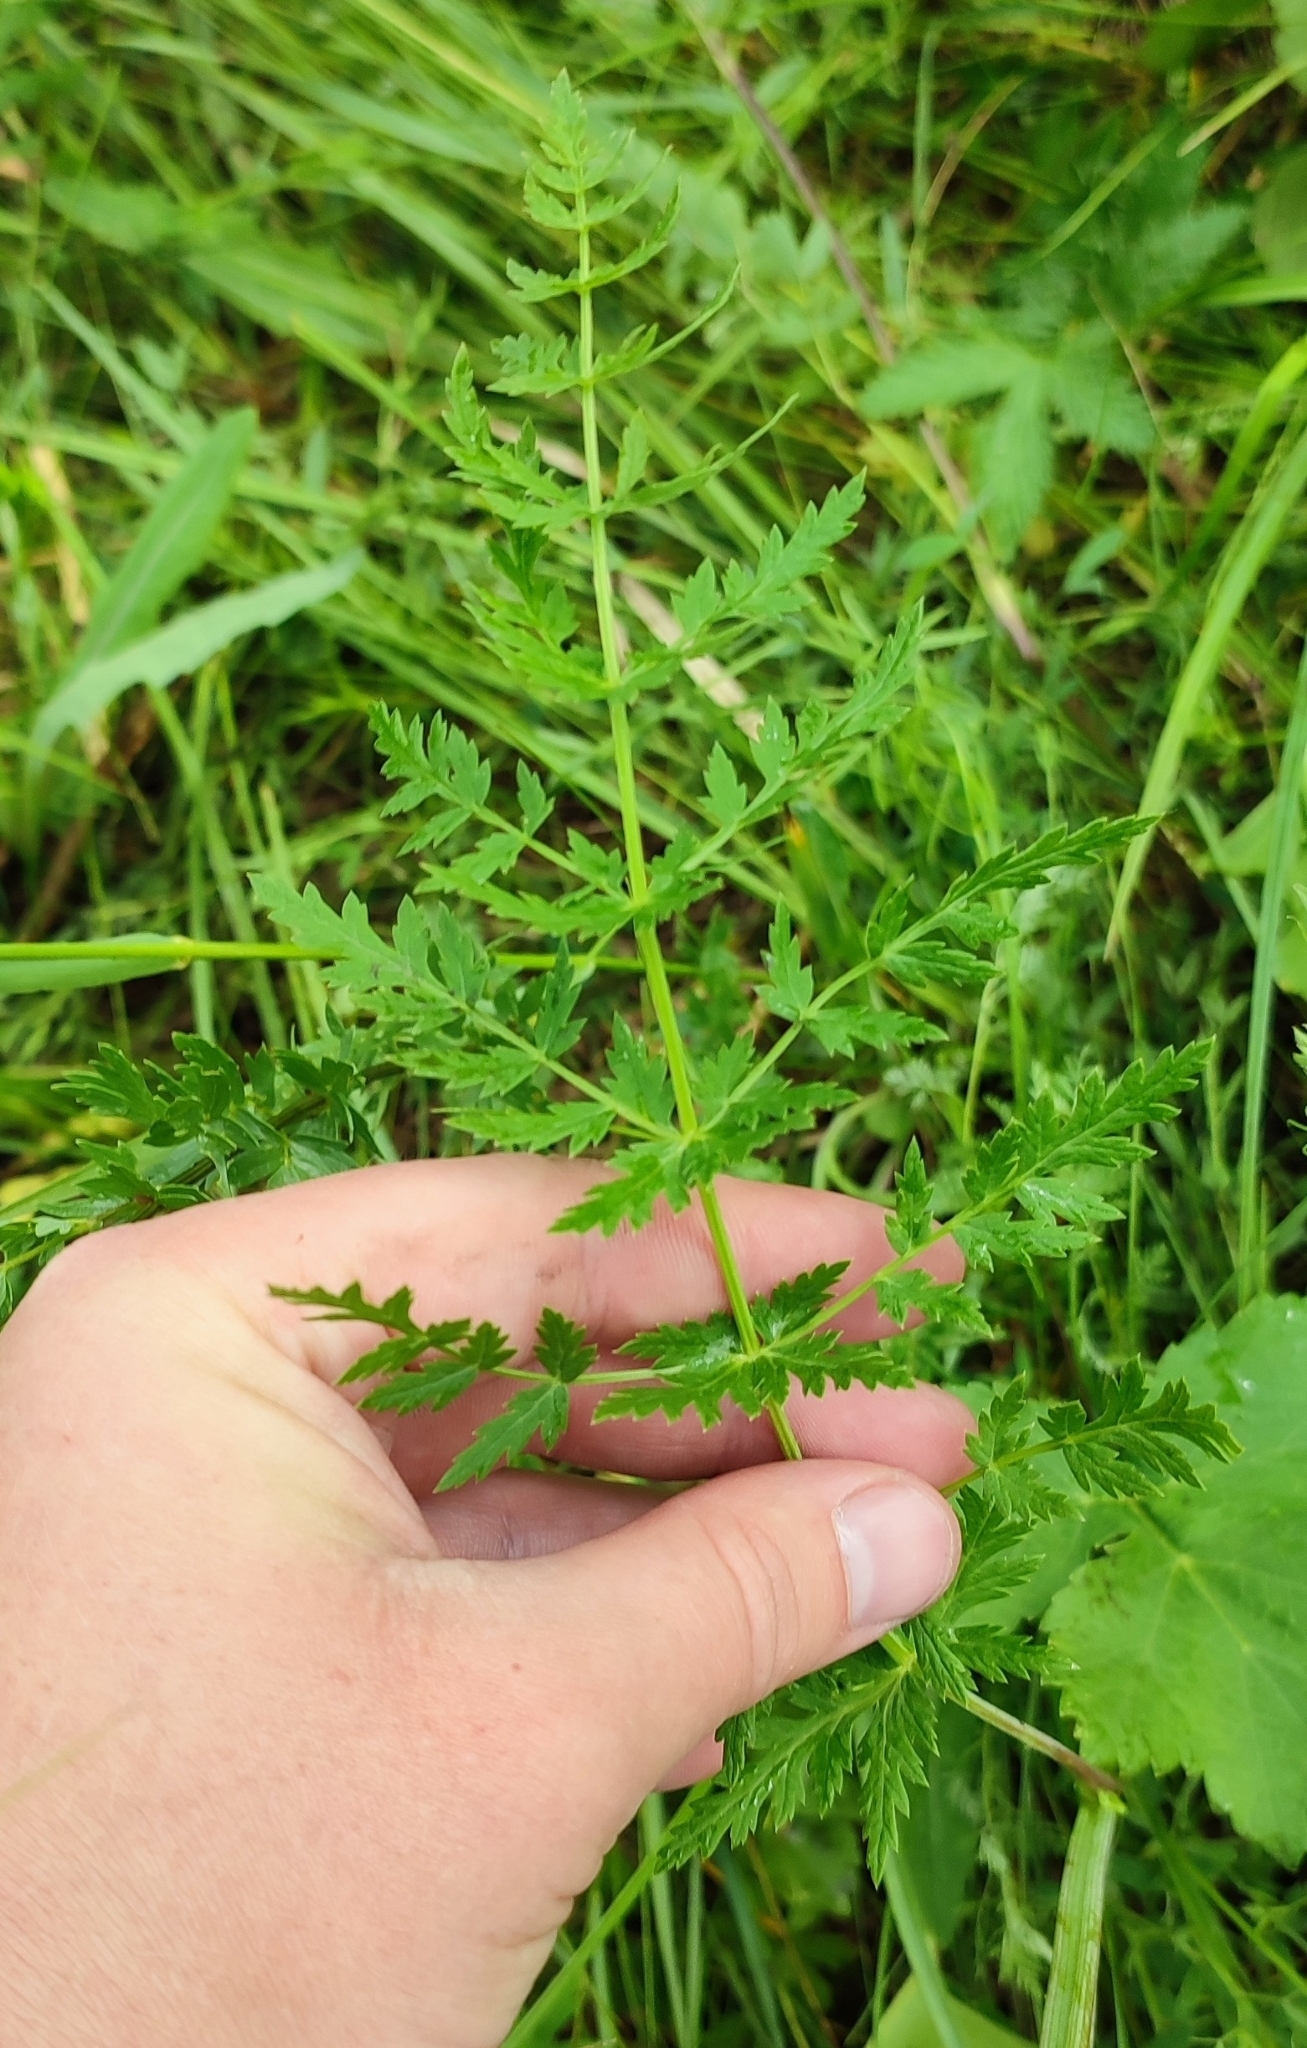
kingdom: Plantae
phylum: Tracheophyta
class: Magnoliopsida
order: Apiales
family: Apiaceae
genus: Seseli
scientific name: Seseli libanotis
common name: Mooncarrot
